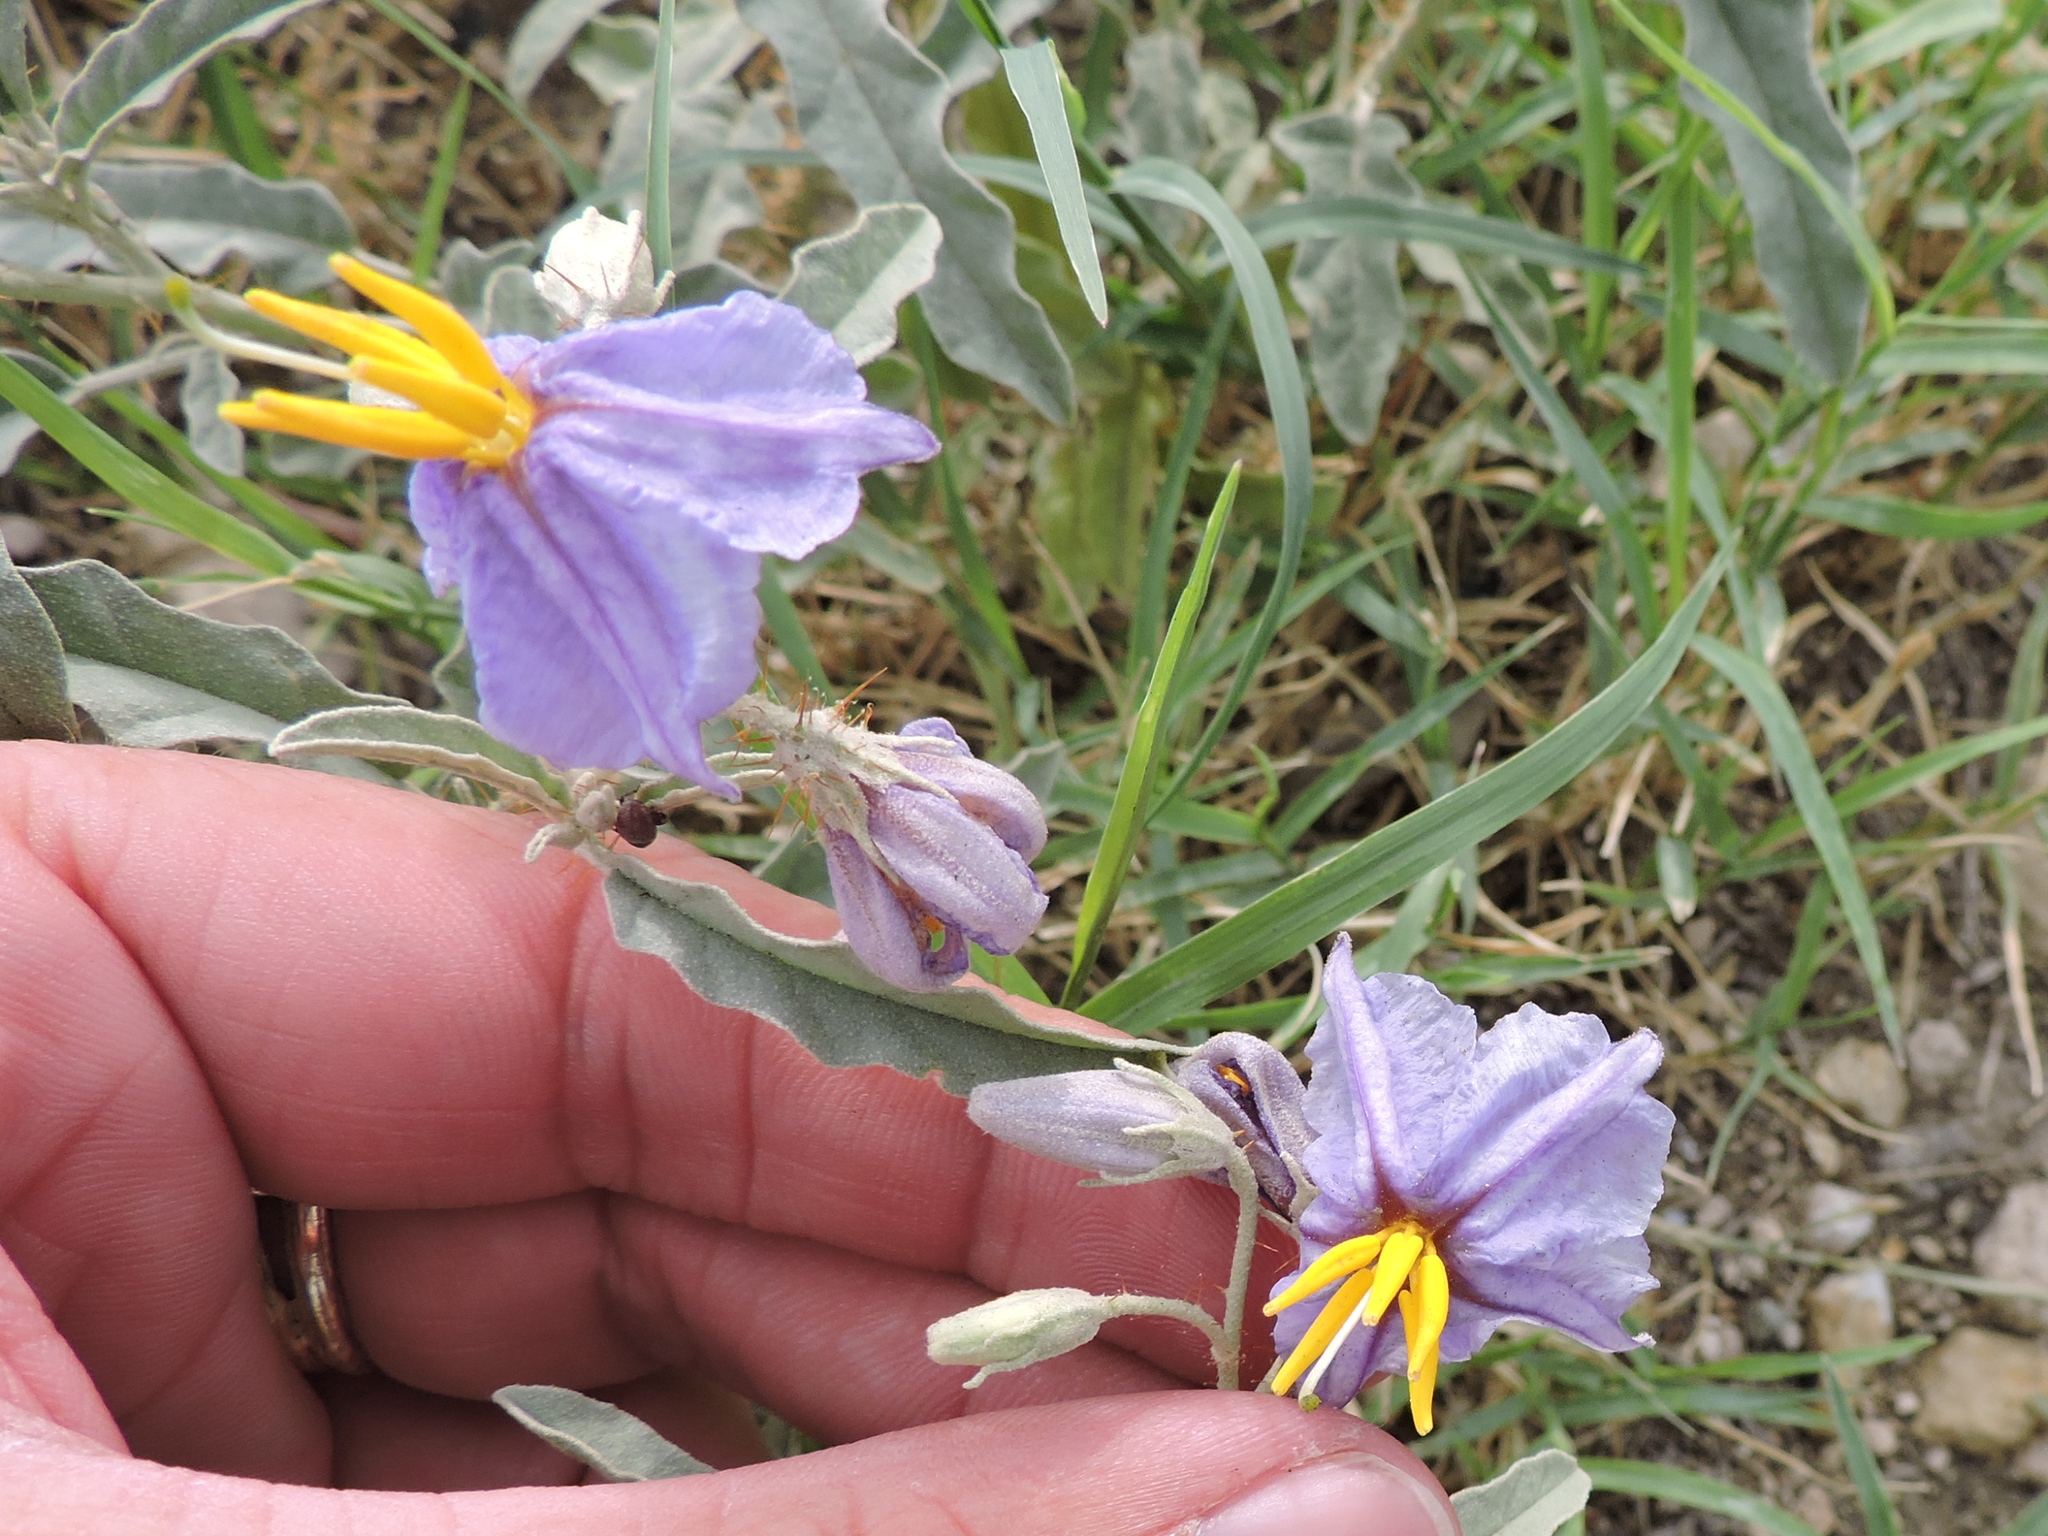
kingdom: Plantae
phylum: Tracheophyta
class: Magnoliopsida
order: Solanales
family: Solanaceae
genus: Solanum
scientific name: Solanum elaeagnifolium
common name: Silverleaf nightshade
